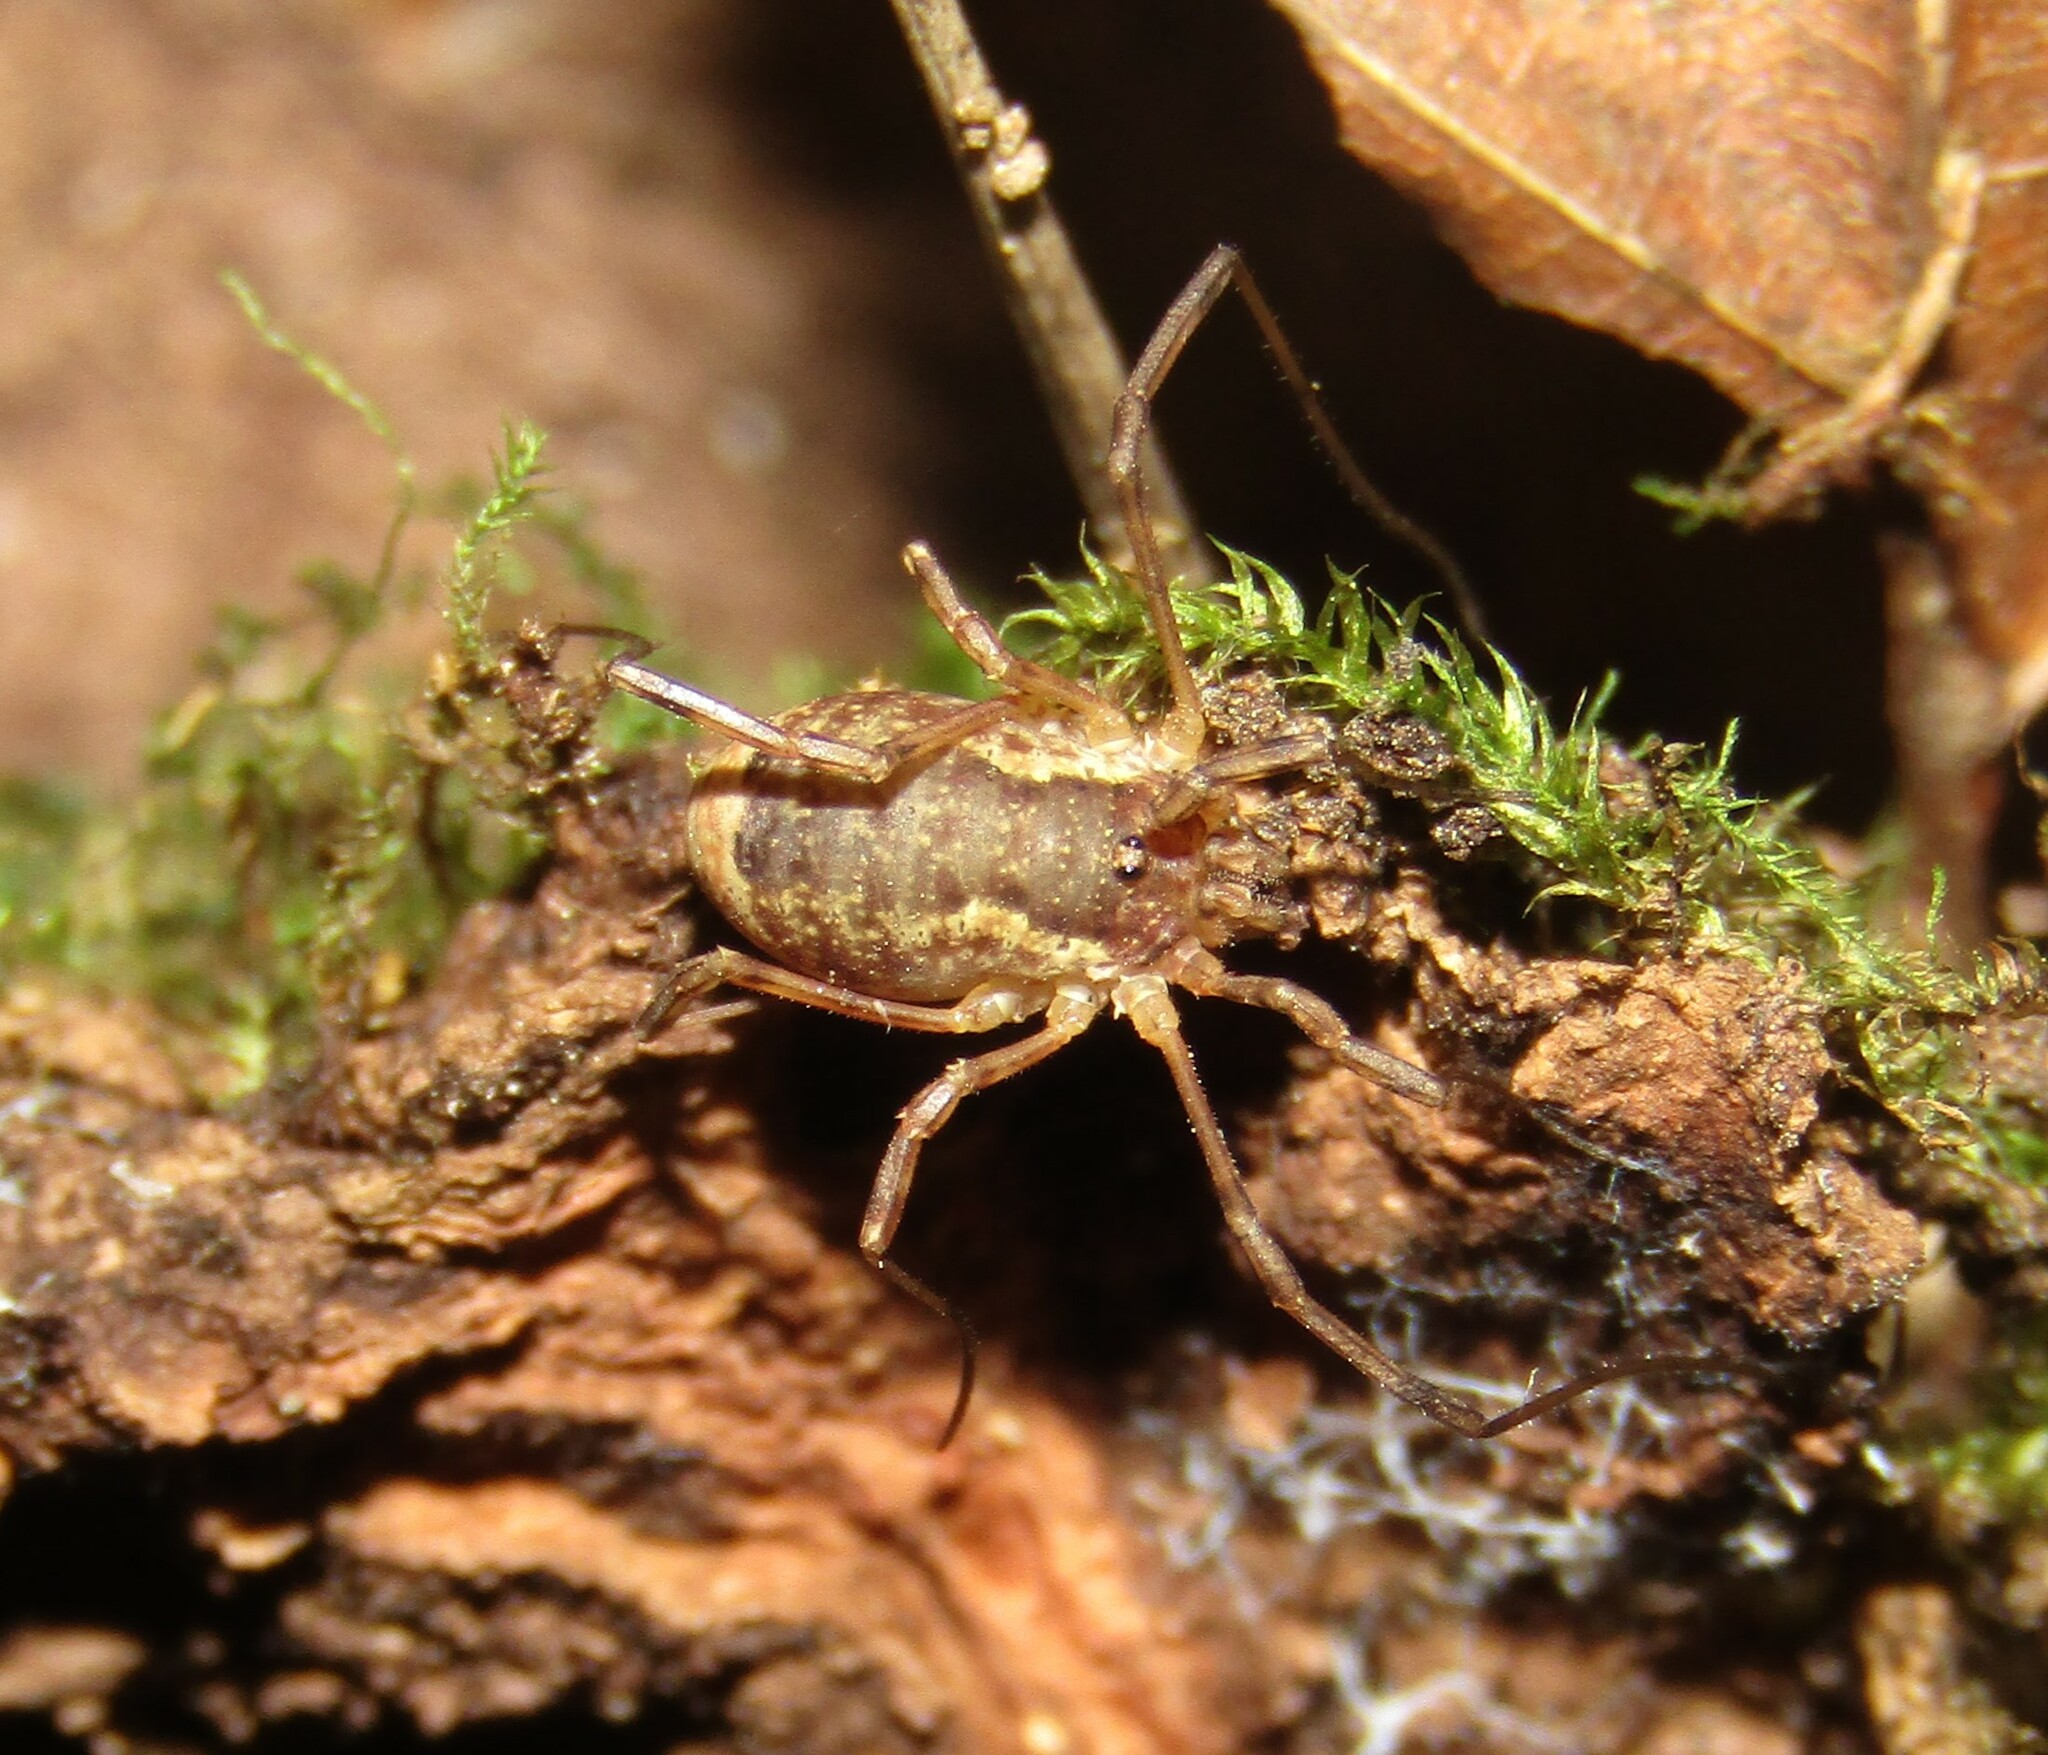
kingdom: Animalia
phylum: Arthropoda
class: Arachnida
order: Opiliones
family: Phalangiidae
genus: Lacinius
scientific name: Lacinius ephippiatus
